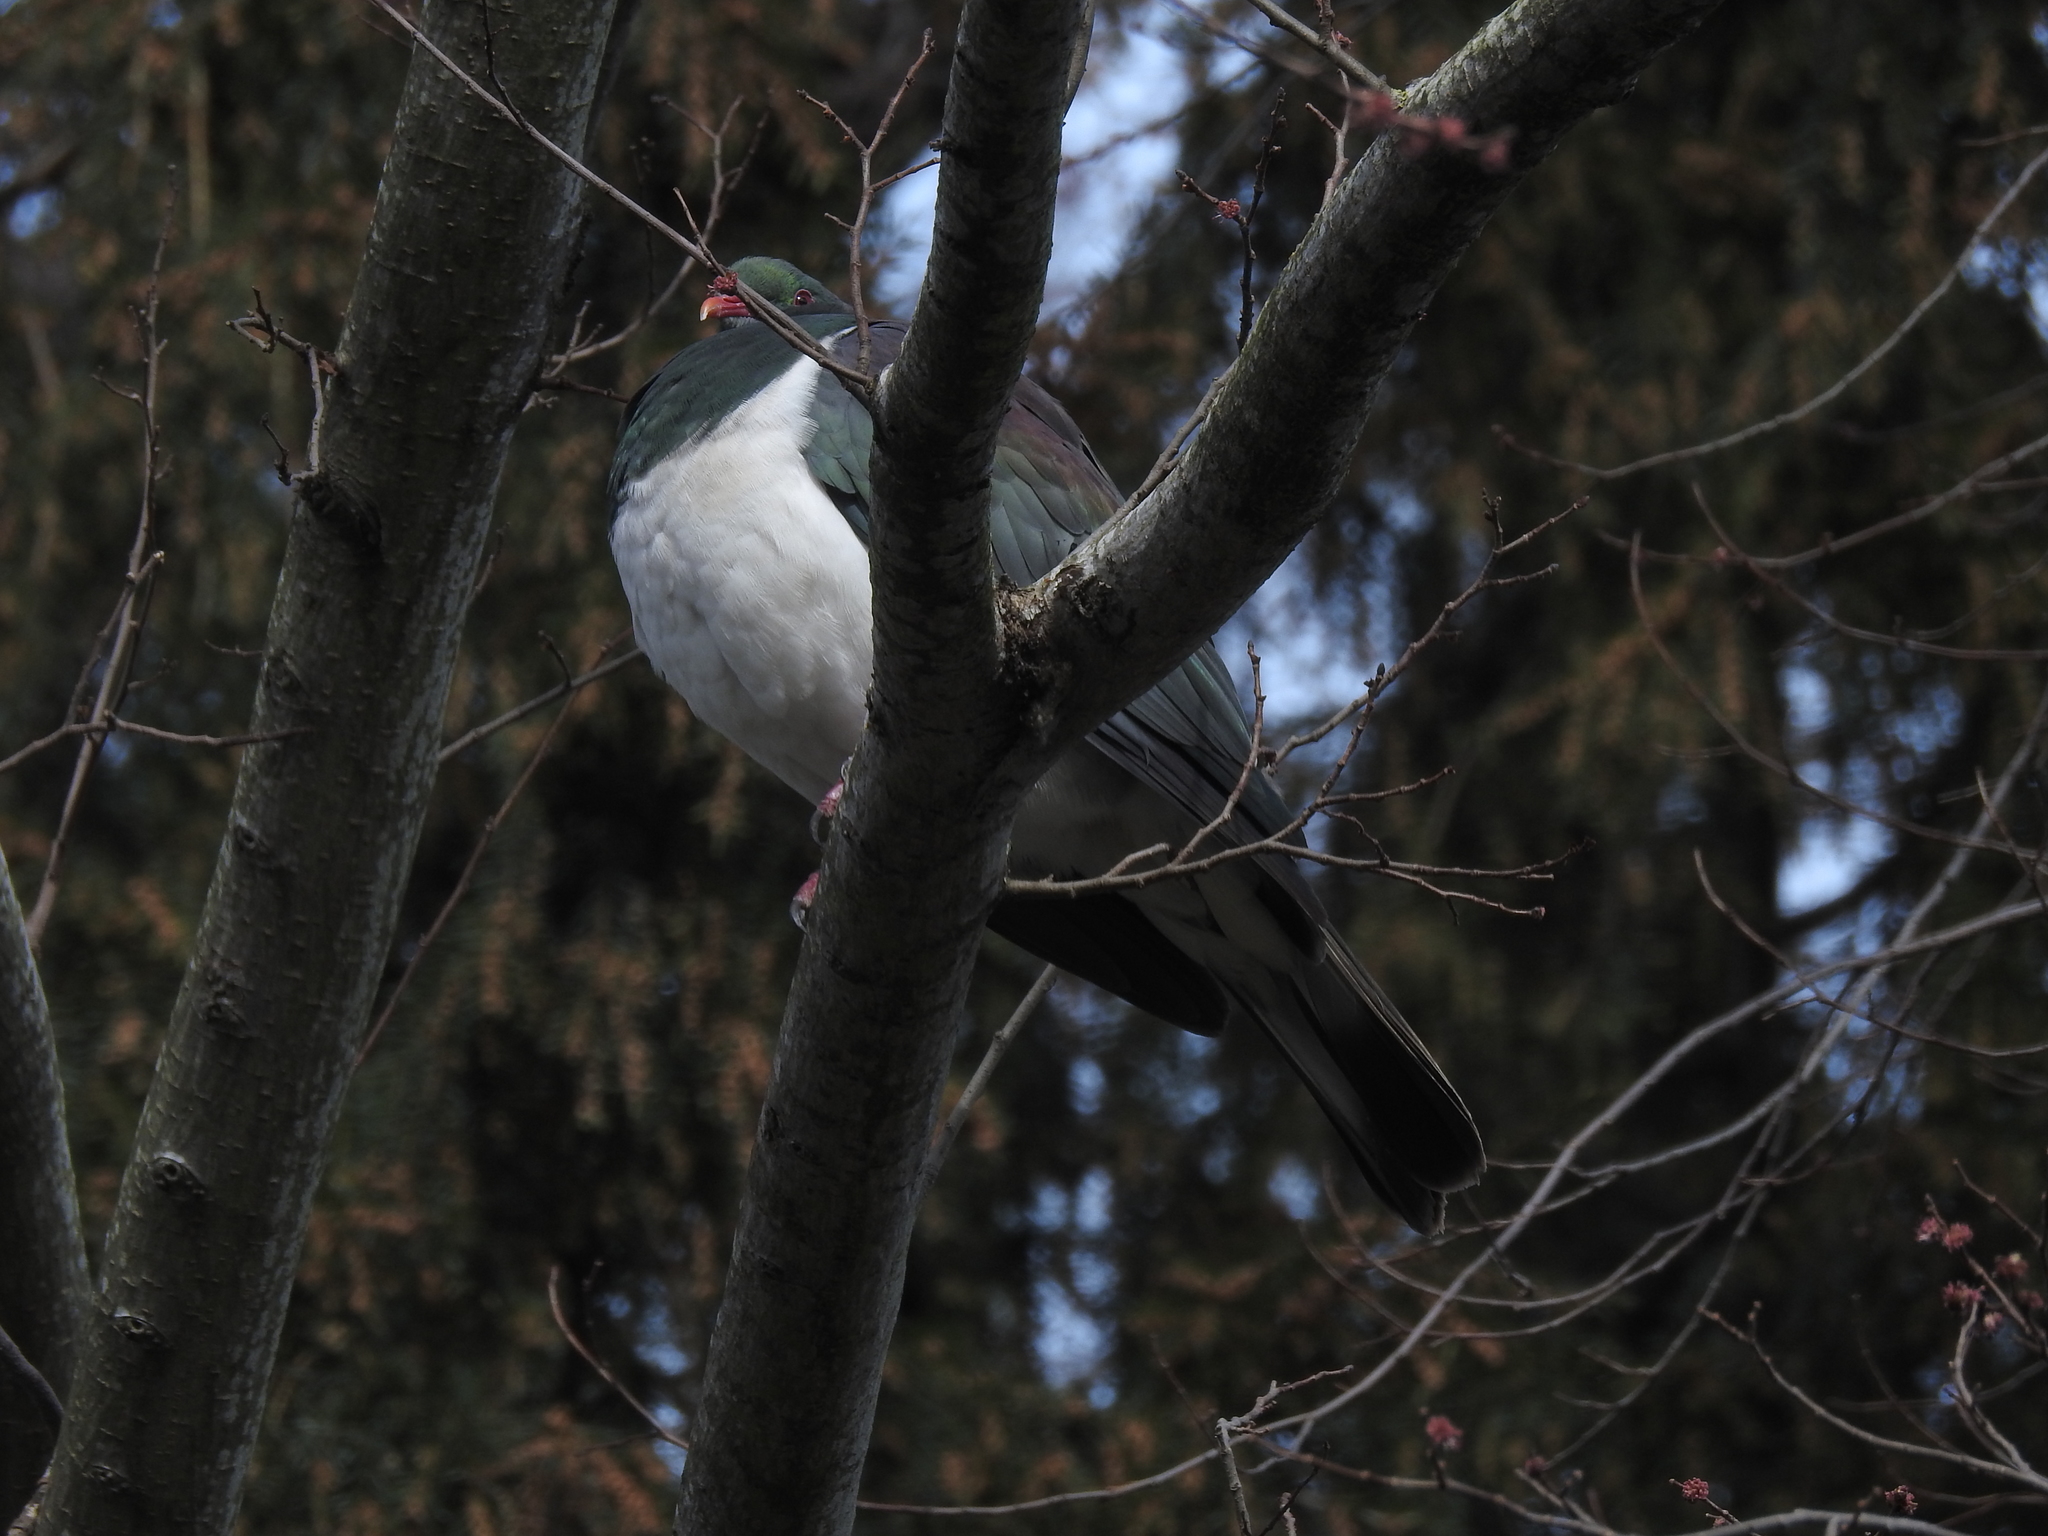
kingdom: Animalia
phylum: Chordata
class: Aves
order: Columbiformes
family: Columbidae
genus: Hemiphaga
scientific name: Hemiphaga novaeseelandiae
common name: New zealand pigeon
